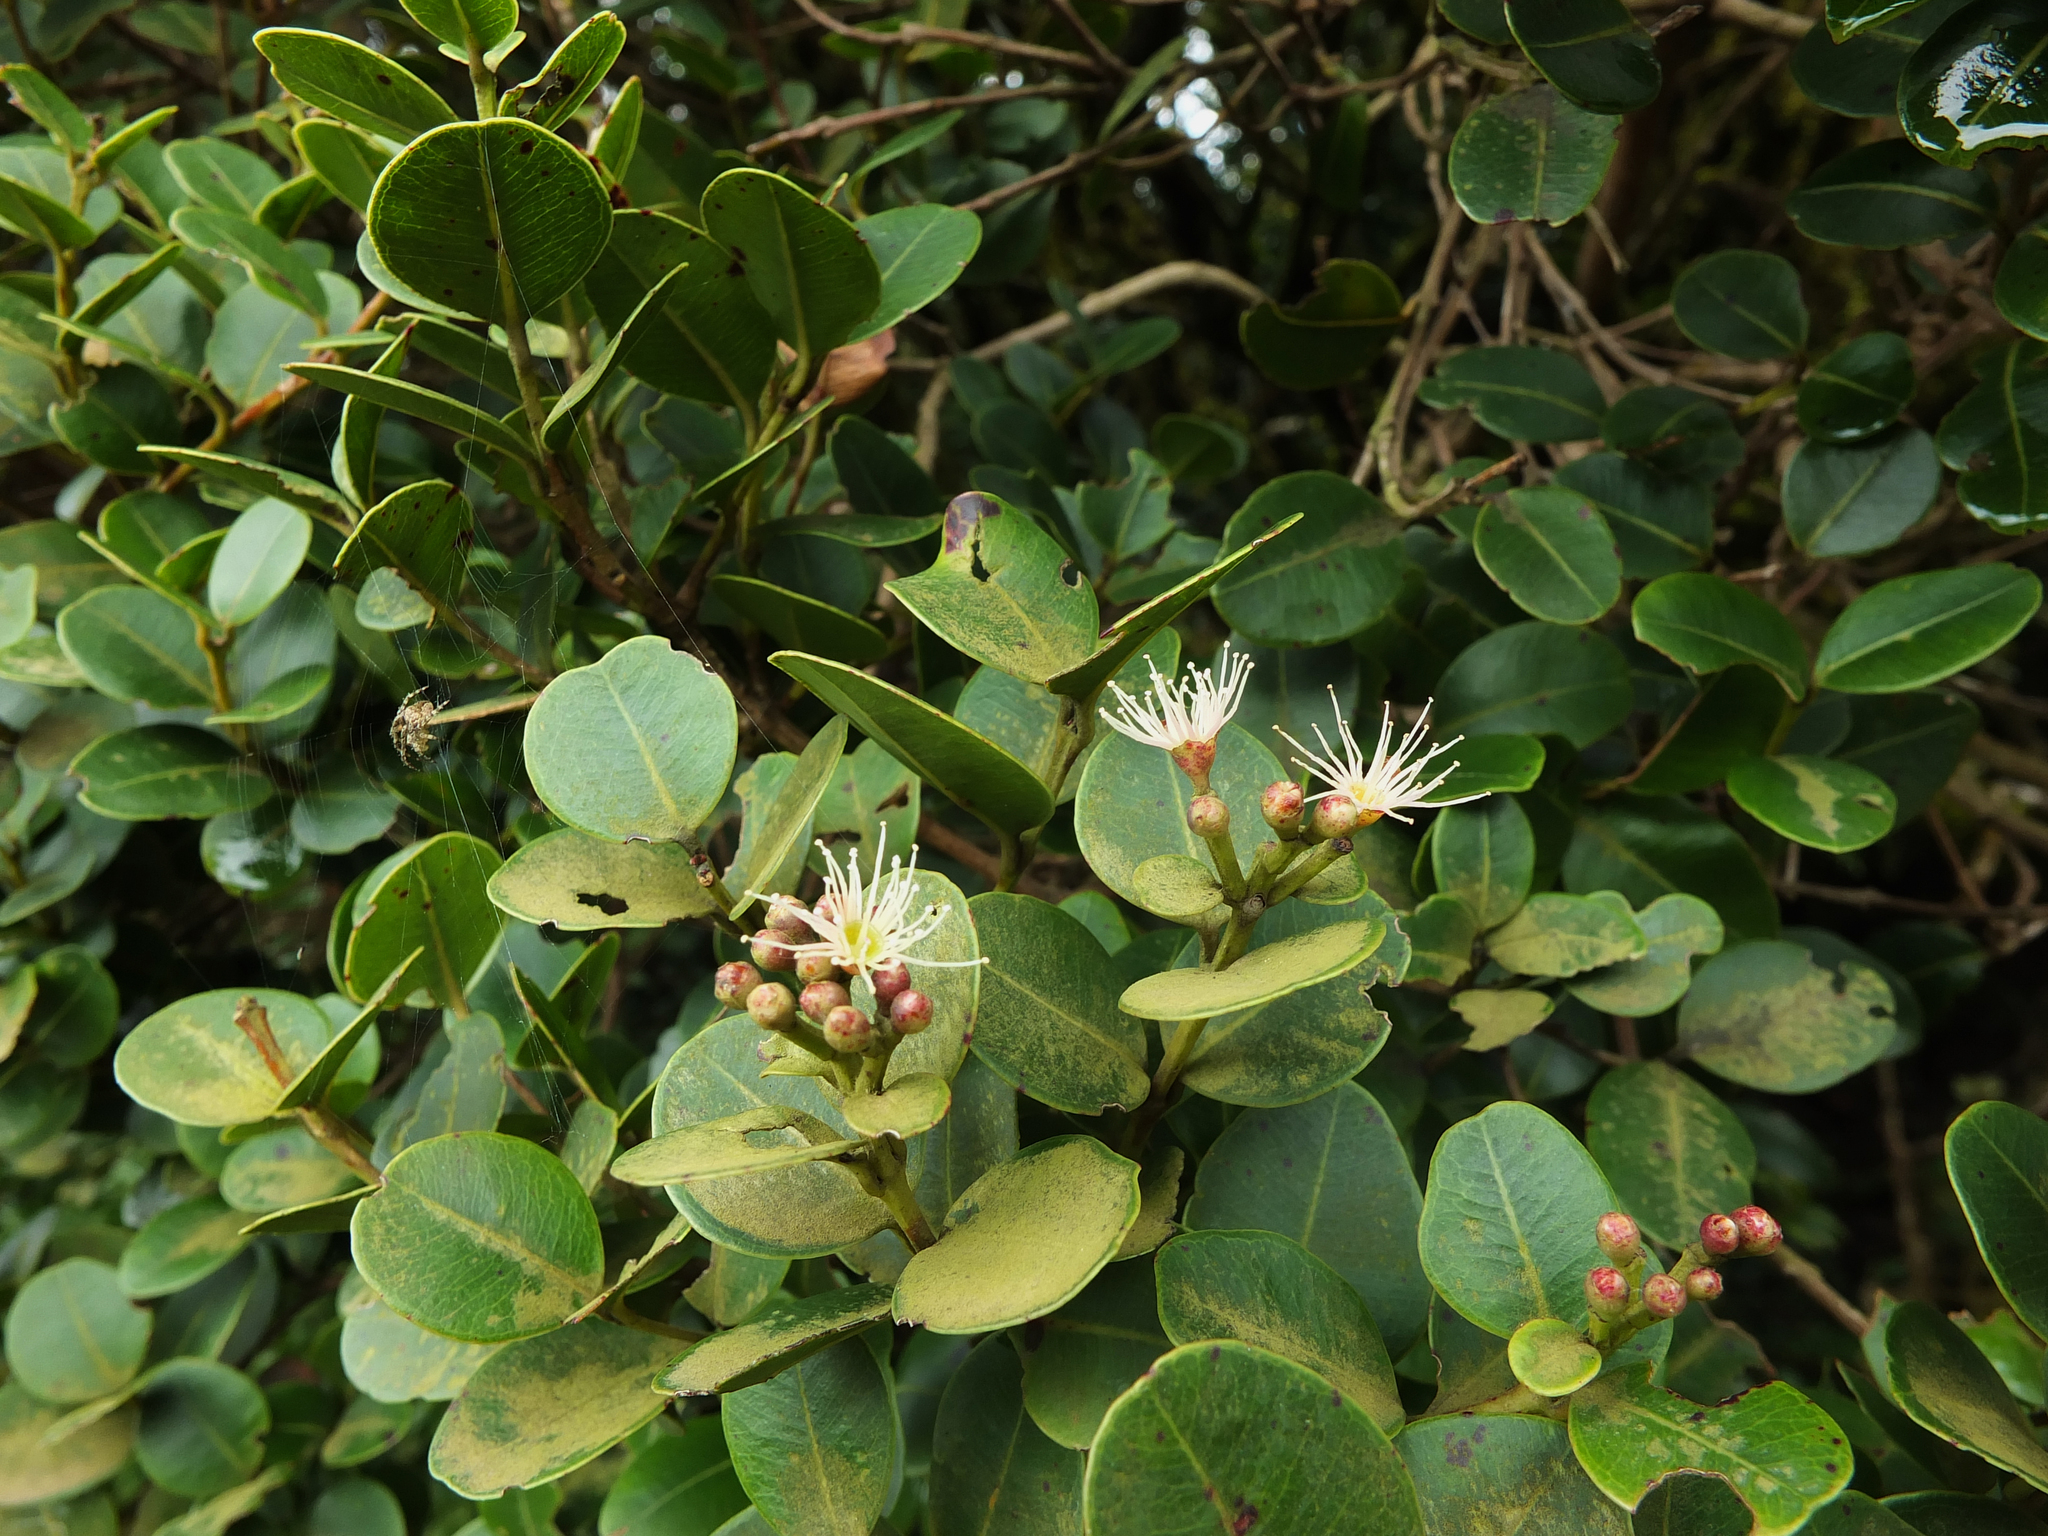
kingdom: Plantae
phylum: Tracheophyta
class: Magnoliopsida
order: Myrtales
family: Myrtaceae
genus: Syzygium
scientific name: Syzygium calophyllifolium
